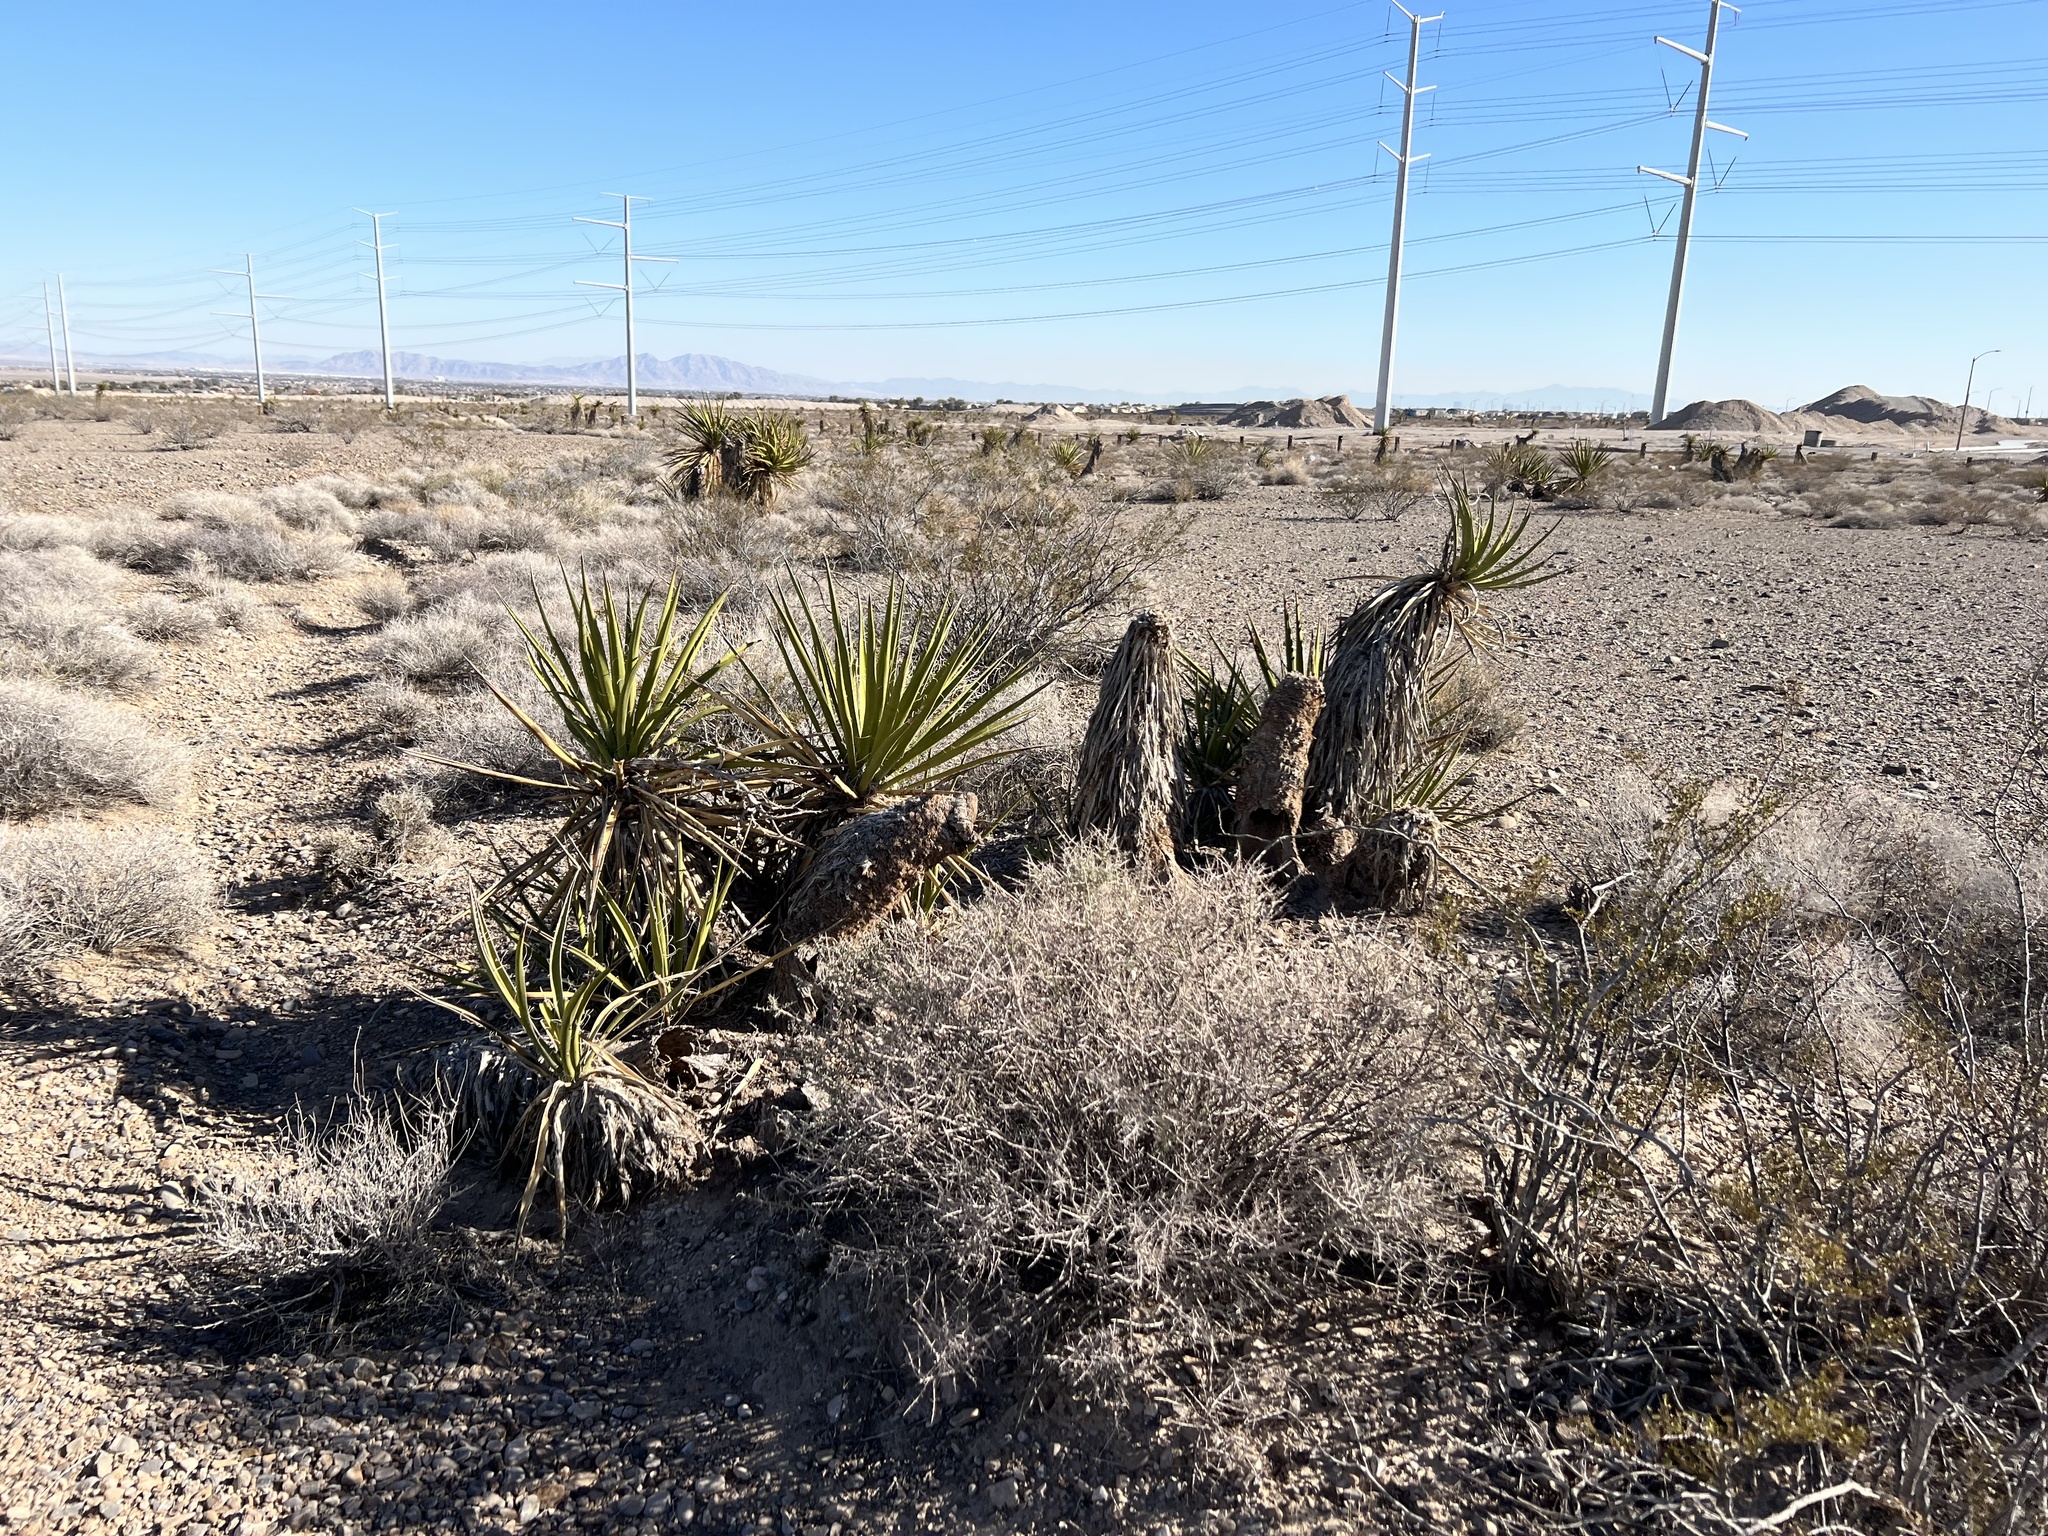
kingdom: Plantae
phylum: Tracheophyta
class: Liliopsida
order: Asparagales
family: Asparagaceae
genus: Yucca
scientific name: Yucca schidigera
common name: Mojave yucca
